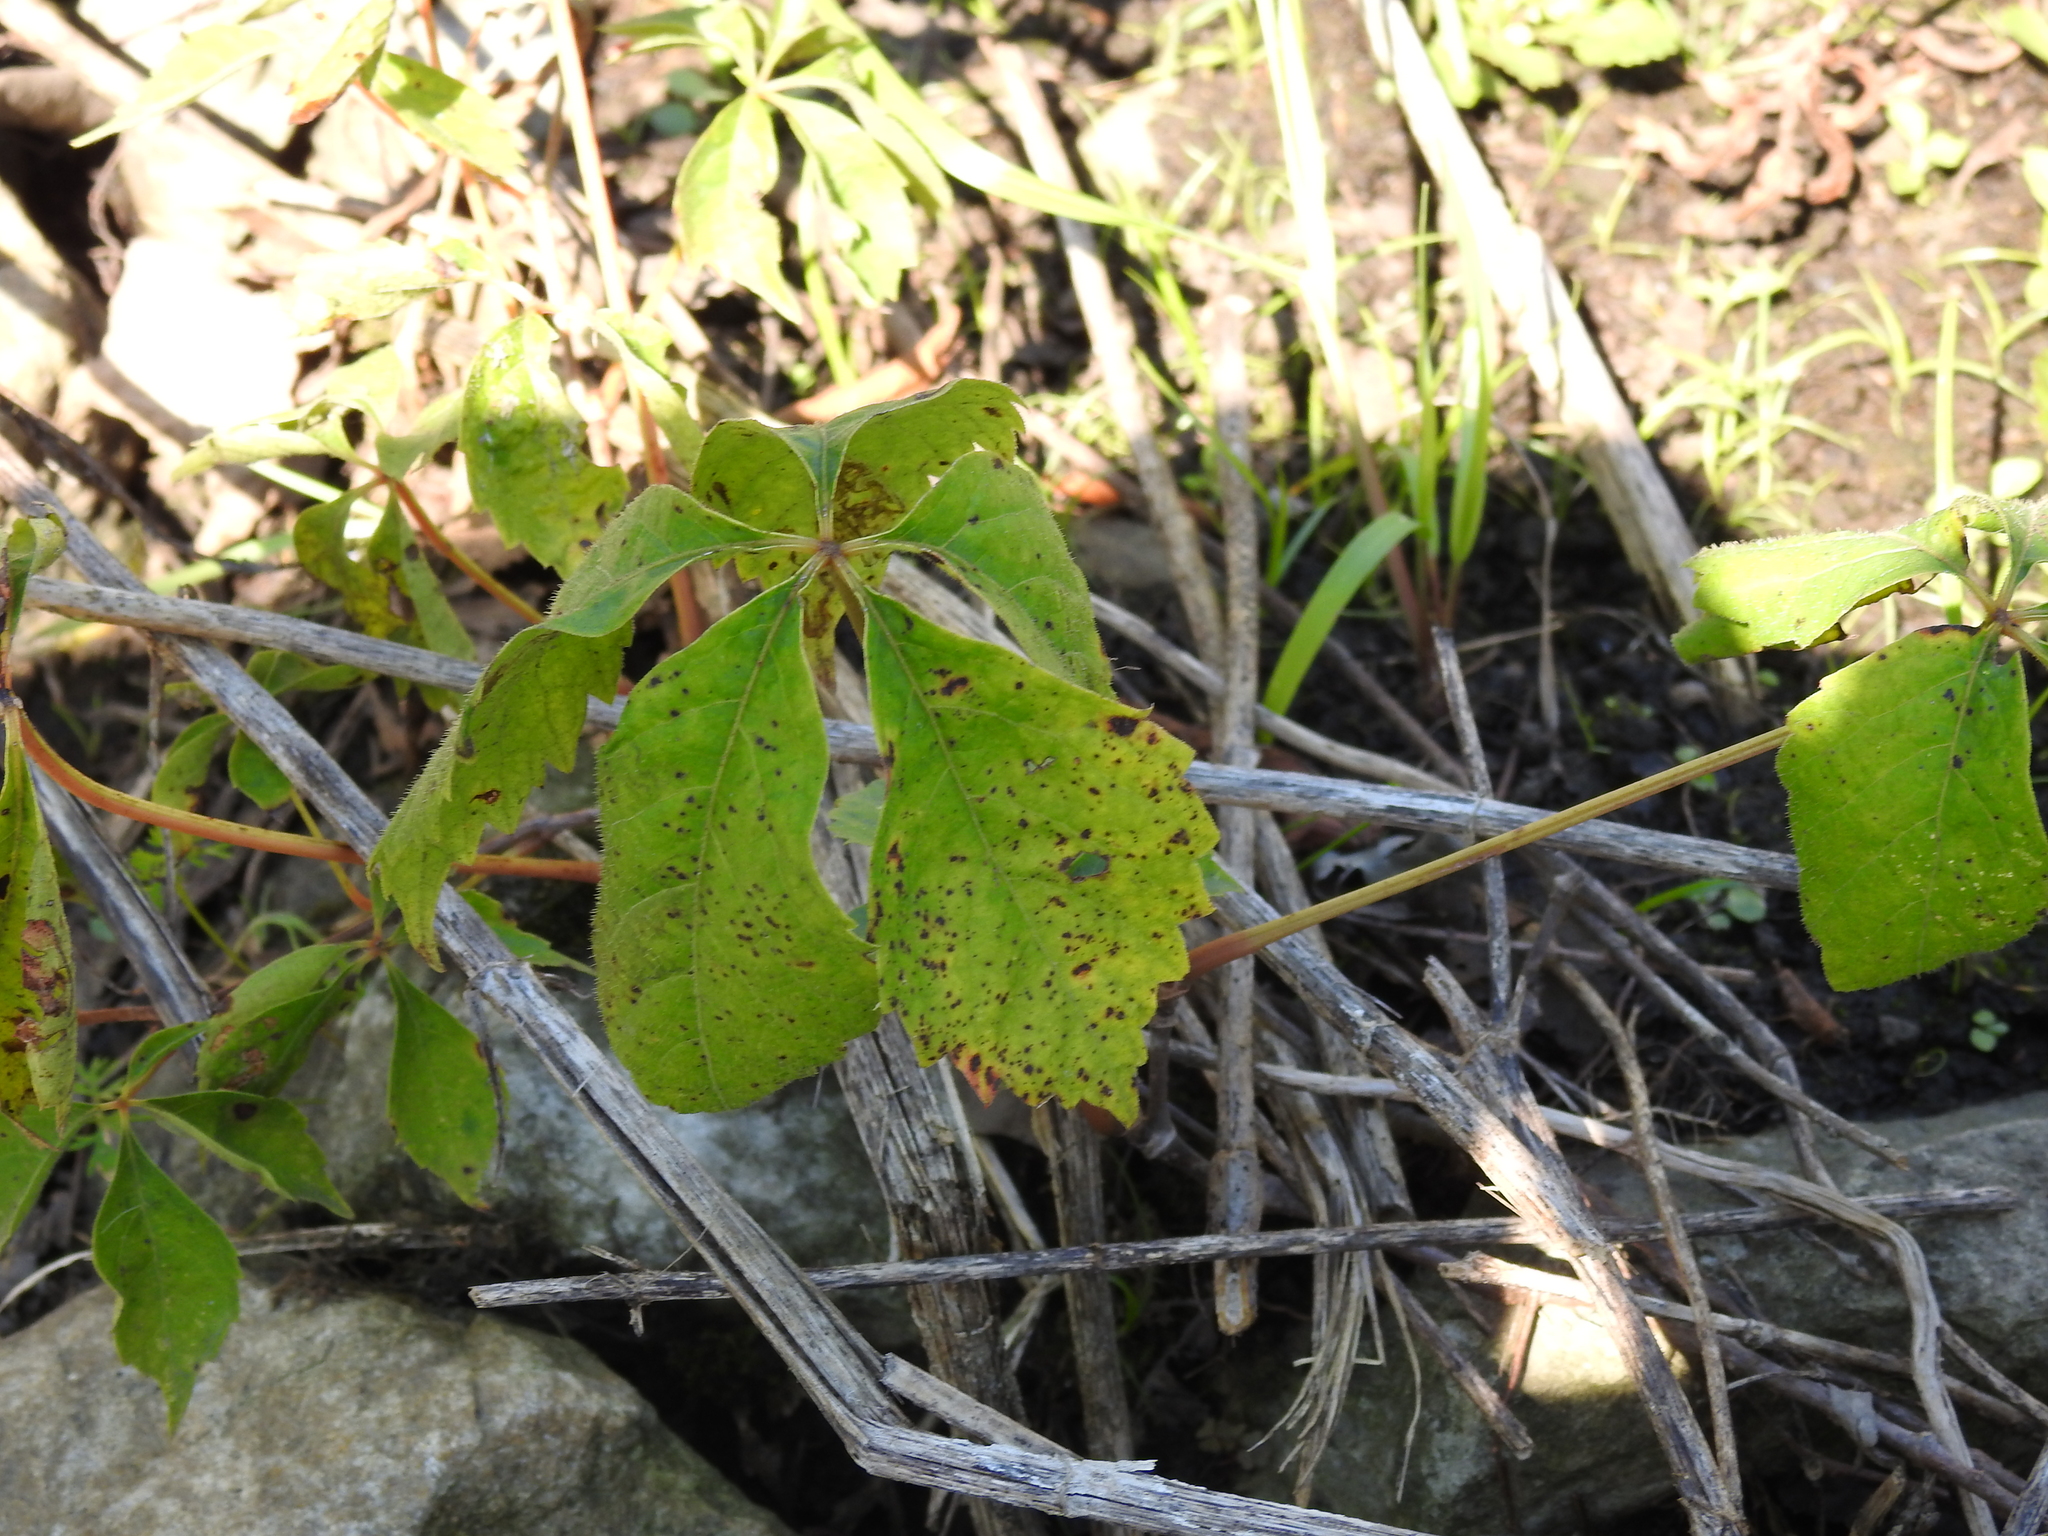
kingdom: Plantae
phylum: Tracheophyta
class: Magnoliopsida
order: Vitales
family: Vitaceae
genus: Parthenocissus
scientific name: Parthenocissus quinquefolia
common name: Virginia-creeper
